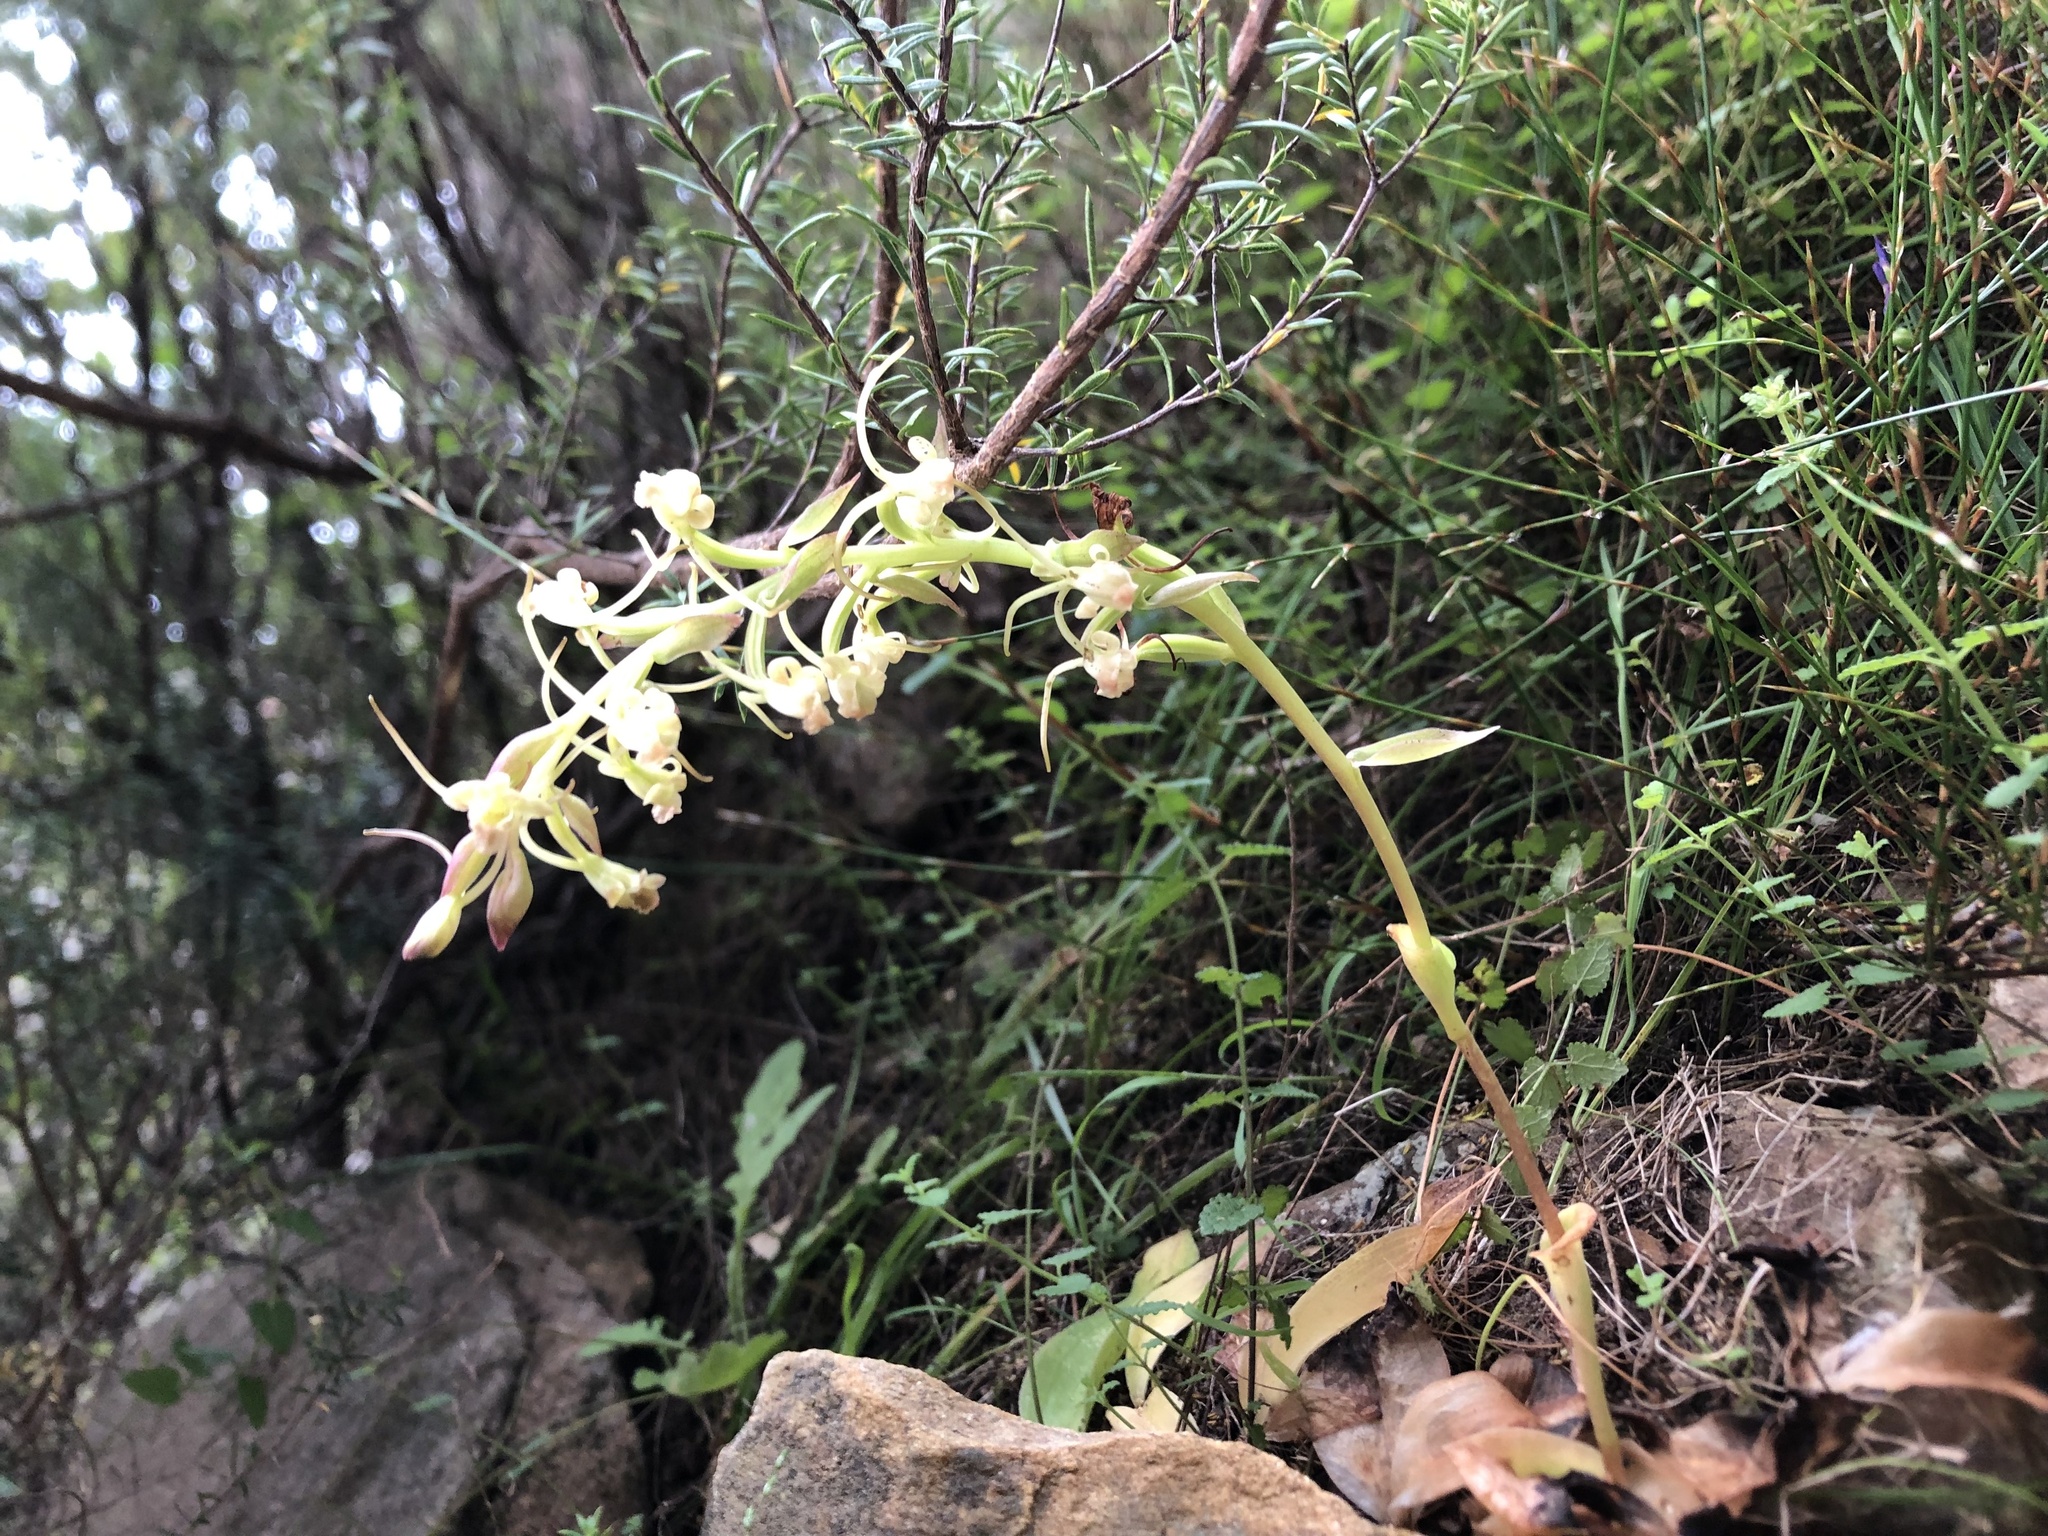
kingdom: Plantae
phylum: Tracheophyta
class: Liliopsida
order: Asparagales
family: Orchidaceae
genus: Satyrium
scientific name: Satyrium humile
